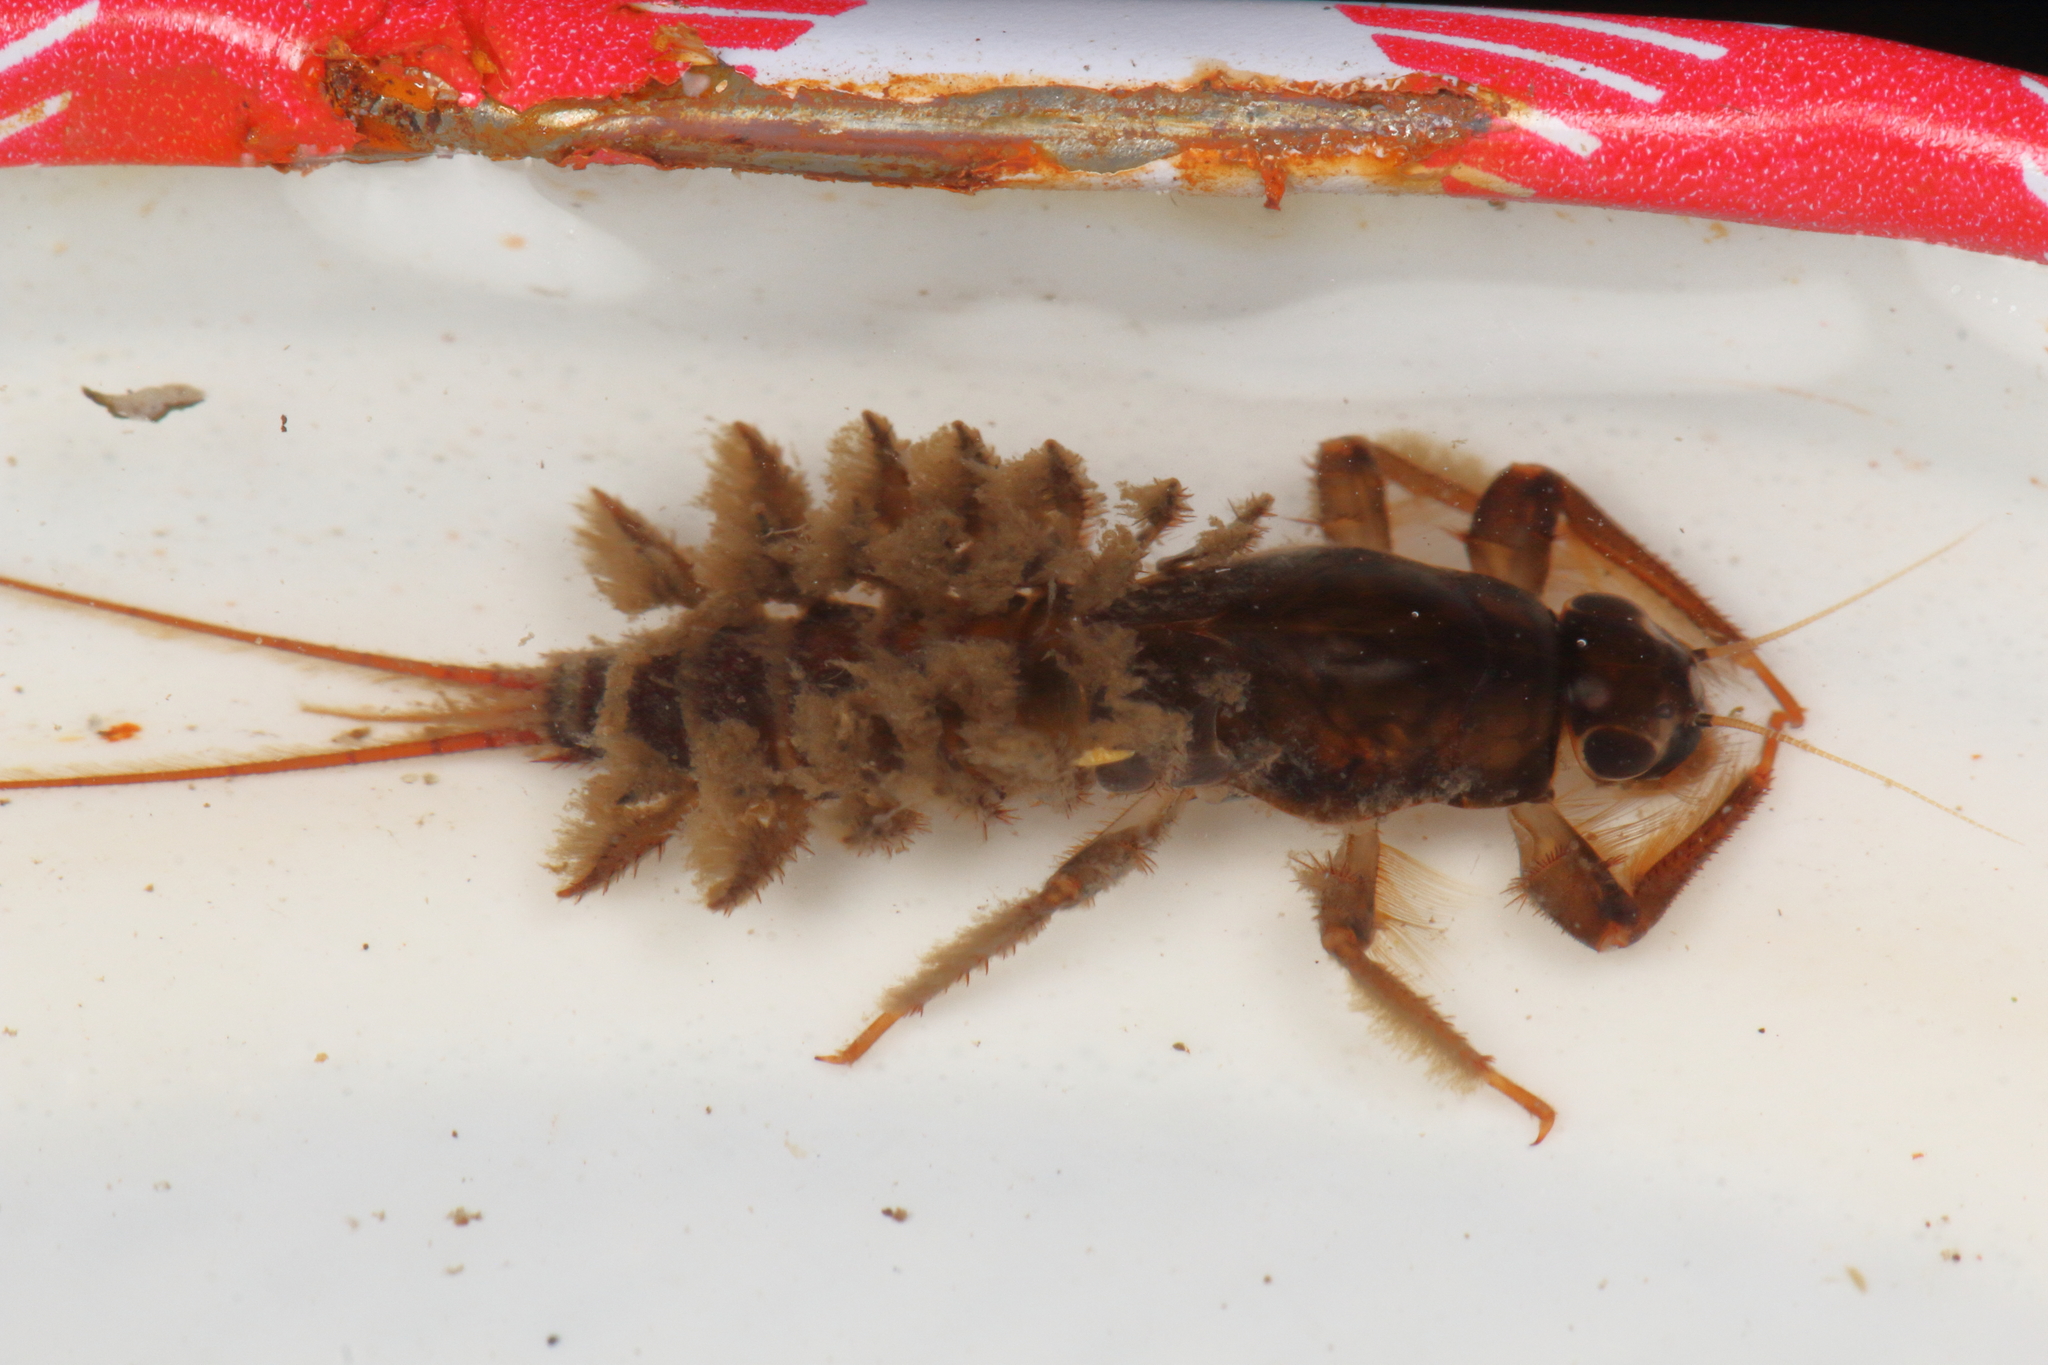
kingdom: Animalia
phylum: Arthropoda
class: Insecta
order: Ephemeroptera
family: Coloburiscidae
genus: Coloburiscus
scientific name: Coloburiscus humeralis
